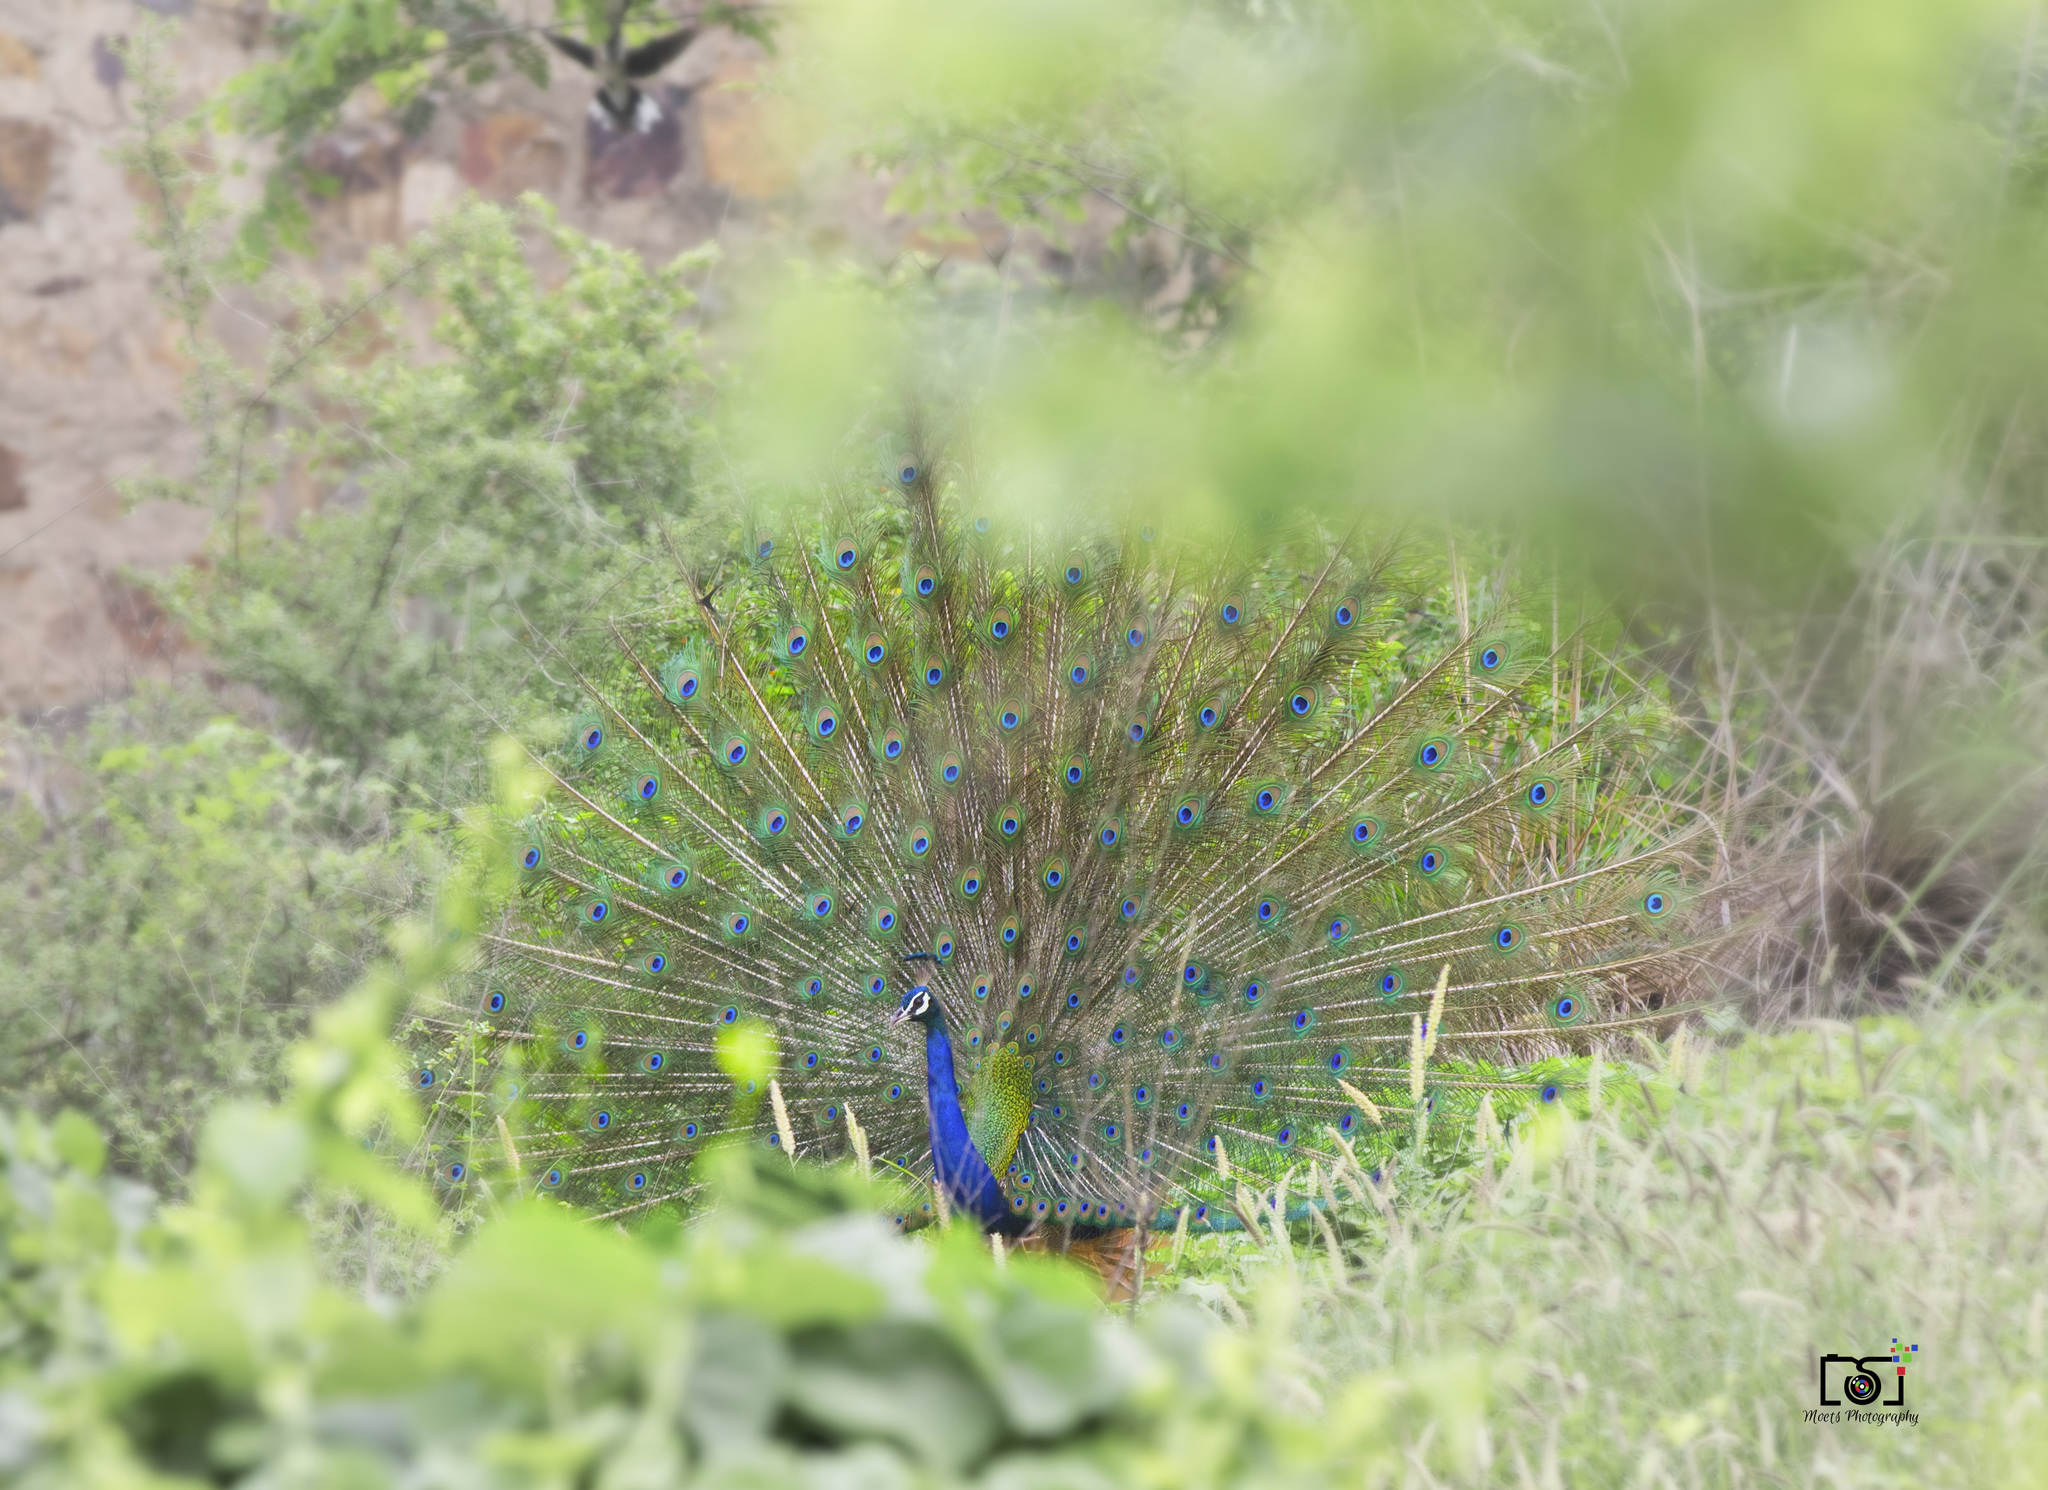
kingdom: Animalia
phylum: Chordata
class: Aves
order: Galliformes
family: Phasianidae
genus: Pavo
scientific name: Pavo cristatus
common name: Indian peafowl
